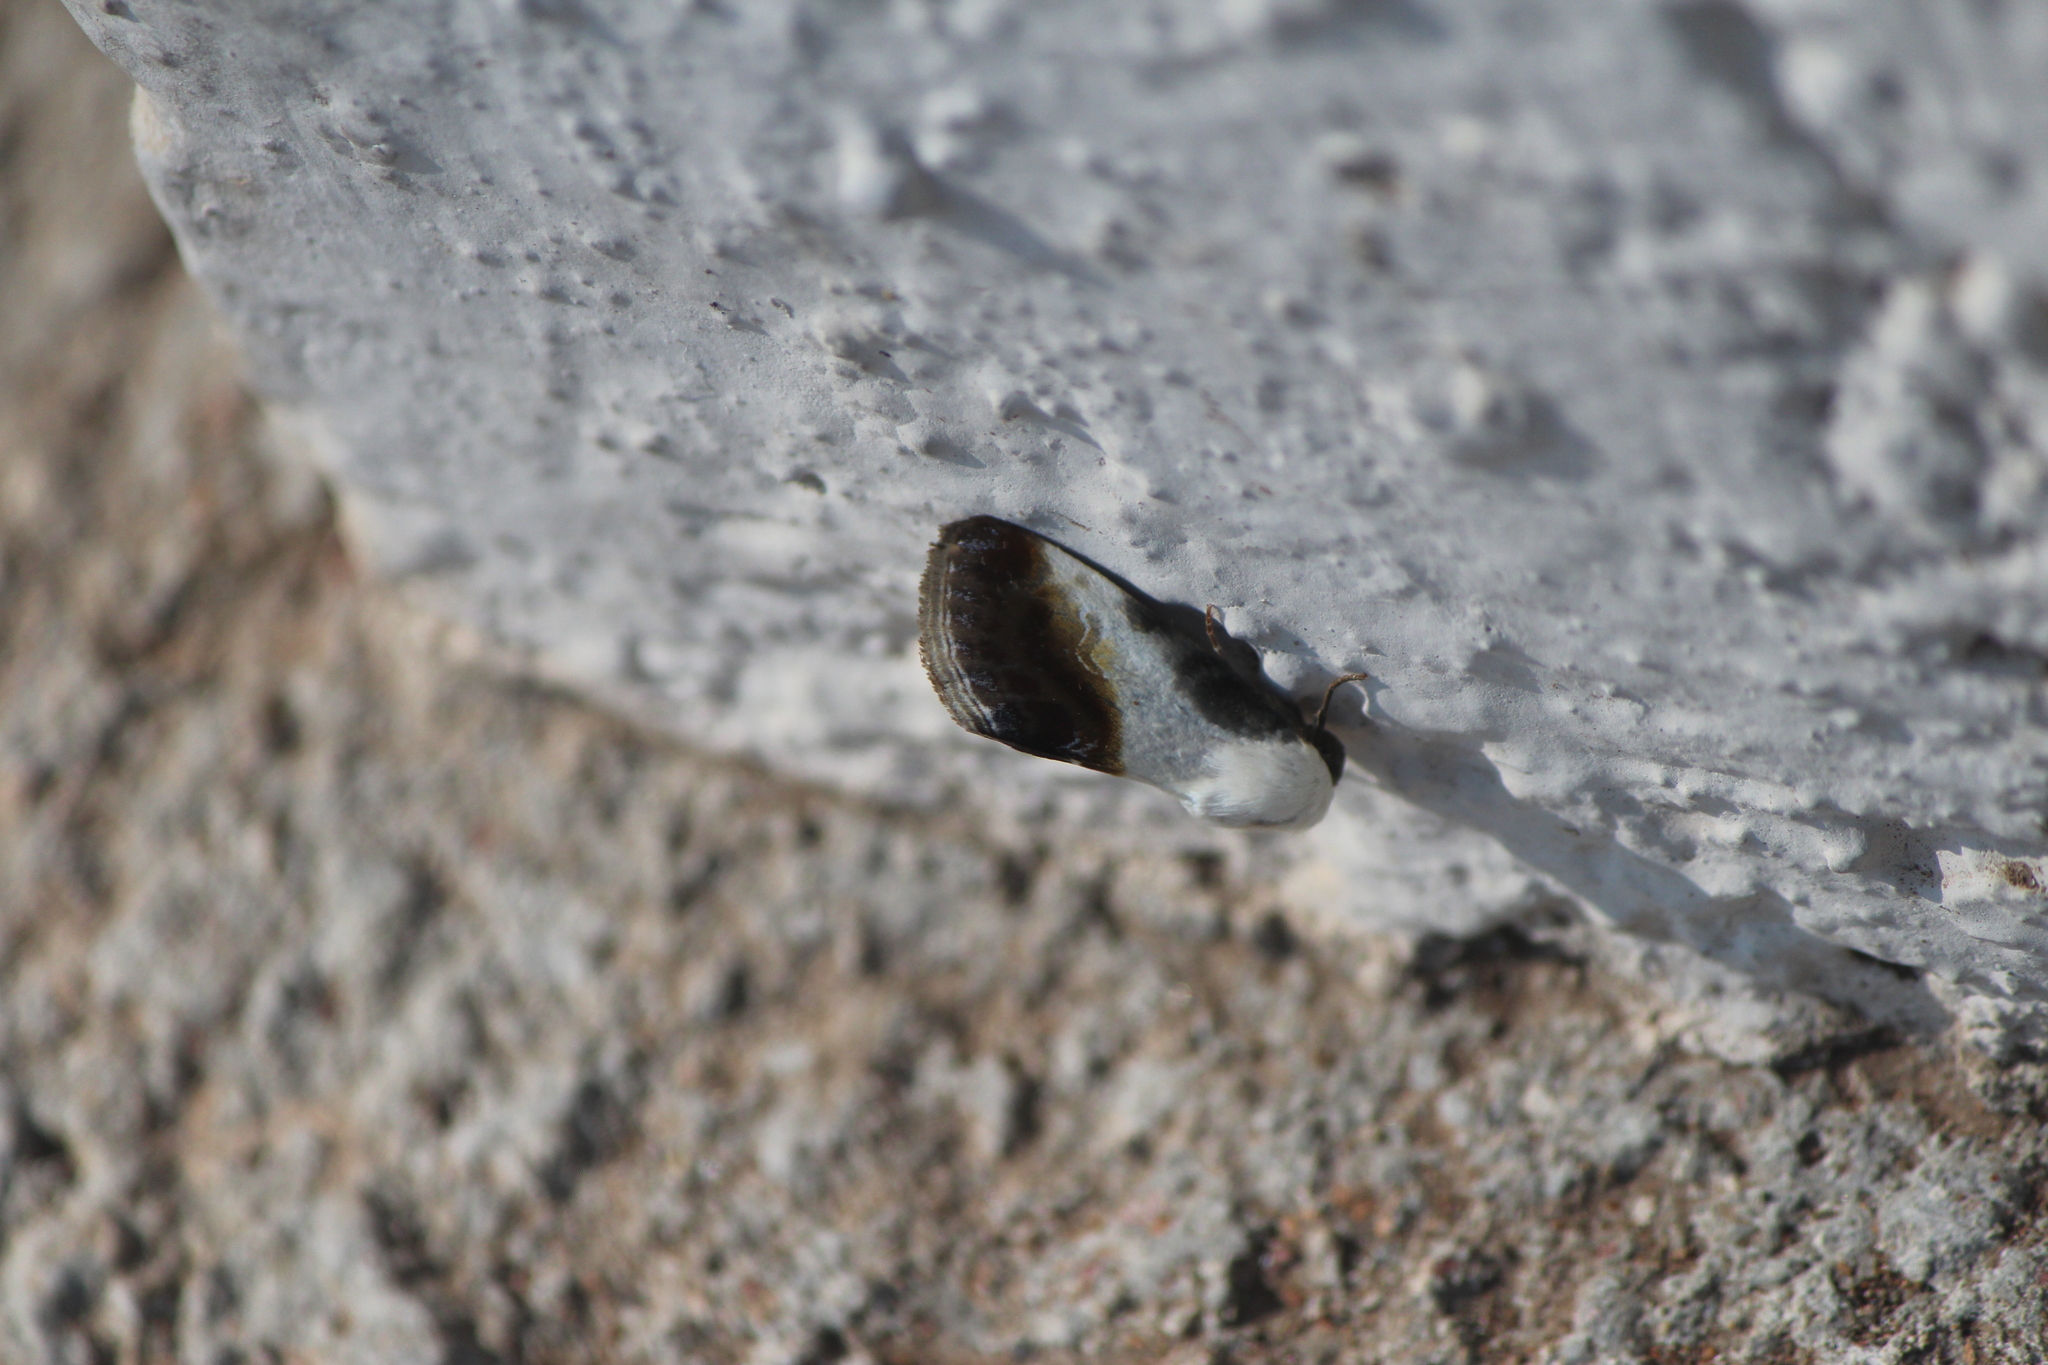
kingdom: Animalia
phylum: Arthropoda
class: Insecta
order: Lepidoptera
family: Noctuidae
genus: Acontia
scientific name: Acontia jaliscana
